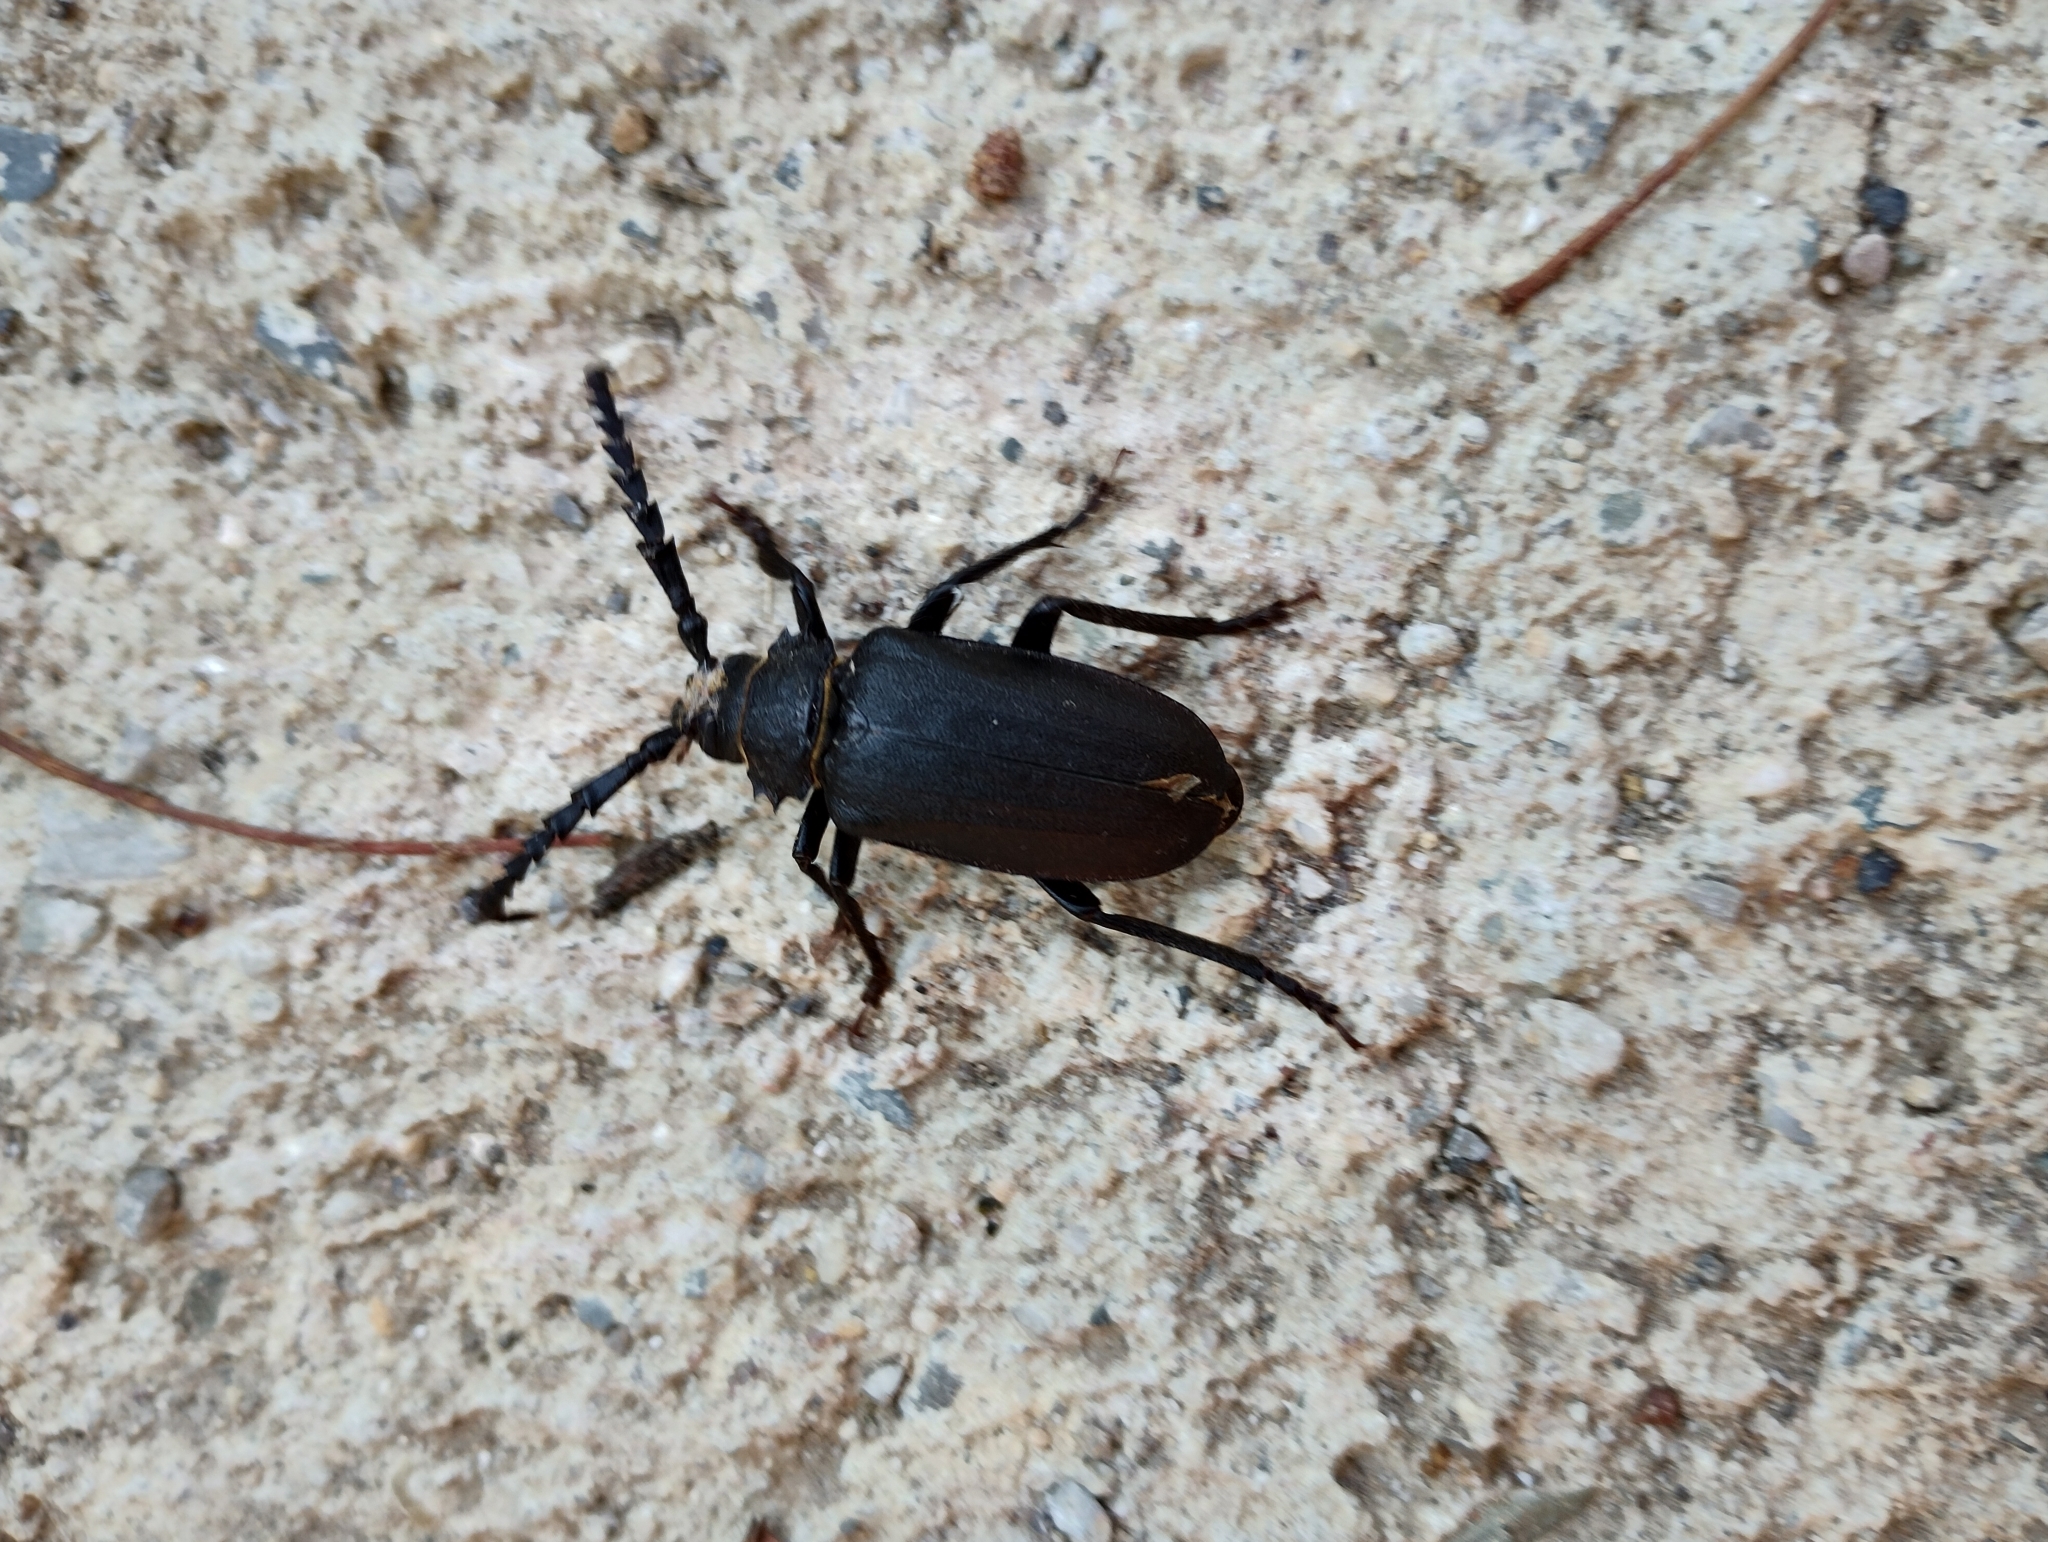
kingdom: Animalia
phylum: Arthropoda
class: Insecta
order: Coleoptera
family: Cerambycidae
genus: Prionus
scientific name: Prionus coriarius
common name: Tanner beetle
